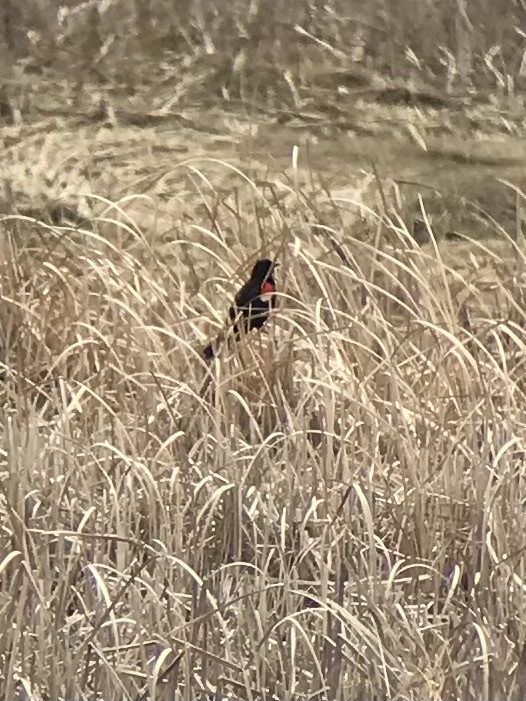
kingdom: Animalia
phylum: Chordata
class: Aves
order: Passeriformes
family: Icteridae
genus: Agelaius
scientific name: Agelaius phoeniceus
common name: Red-winged blackbird
